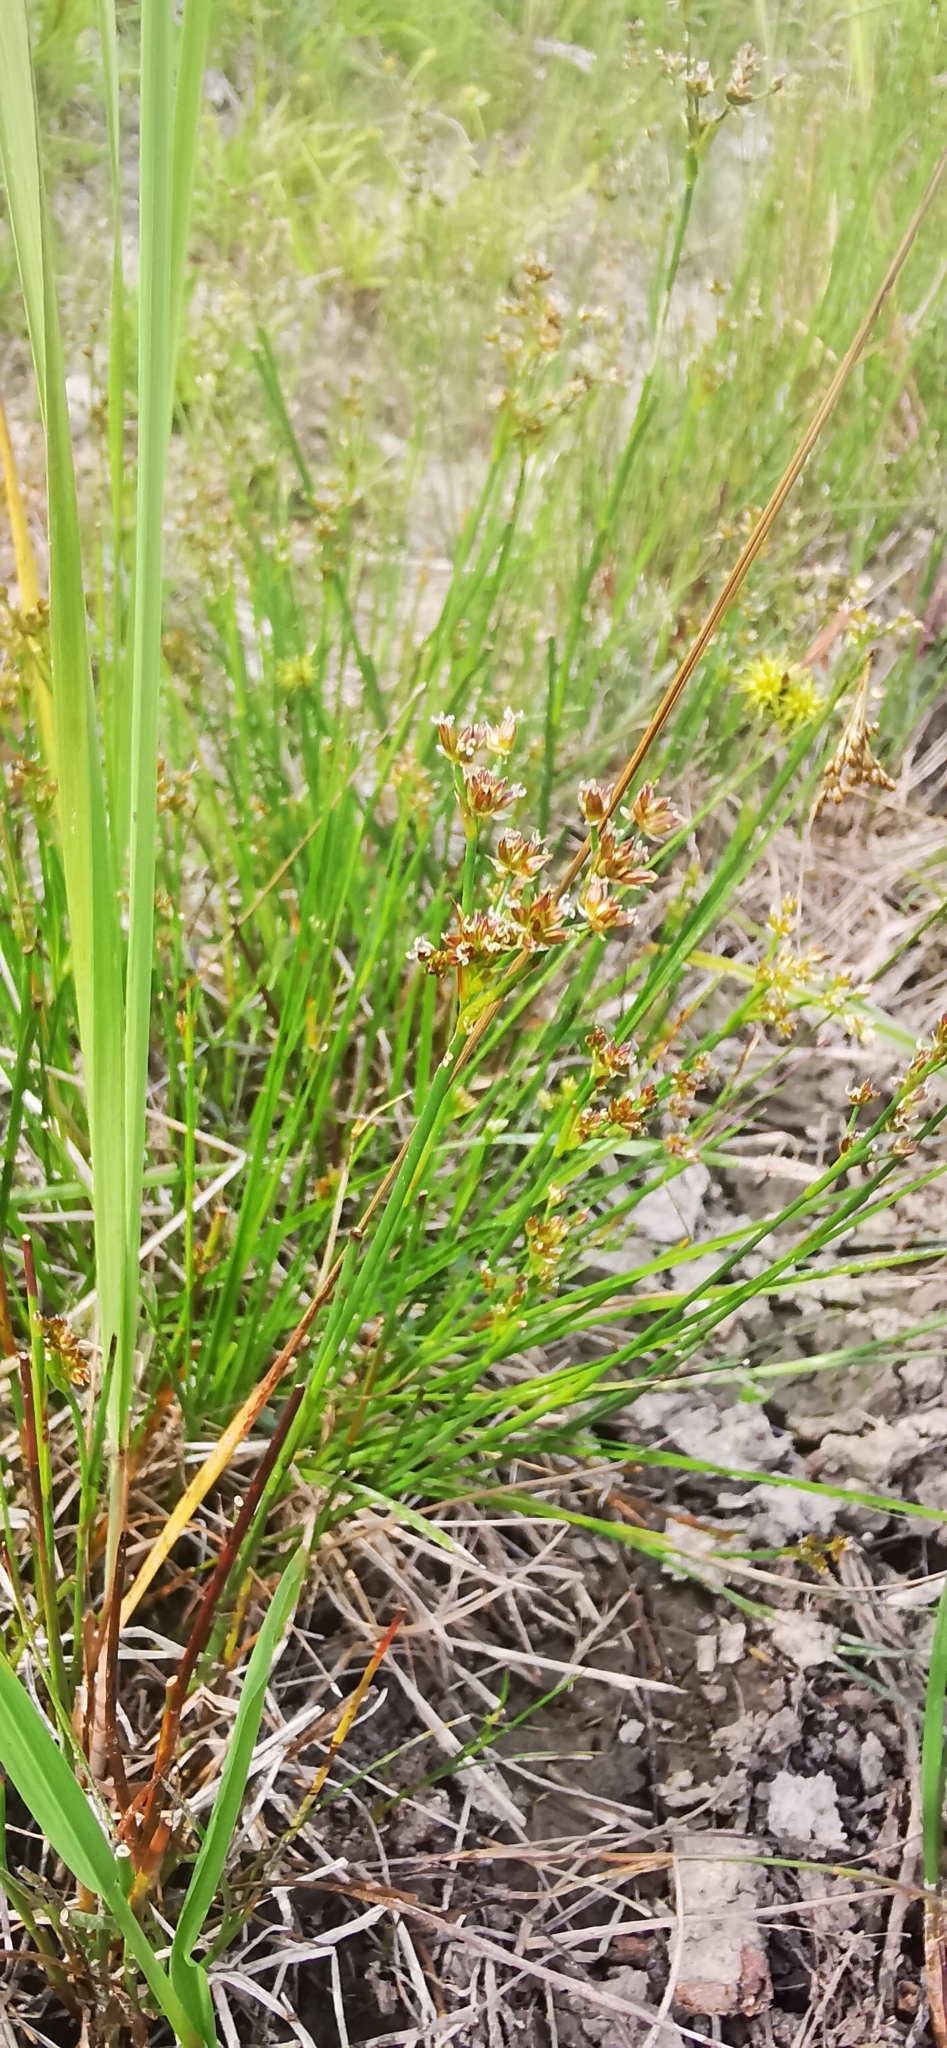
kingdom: Plantae
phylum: Tracheophyta
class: Liliopsida
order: Poales
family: Juncaceae
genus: Juncus
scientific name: Juncus compressus
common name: Round-fruited rush
